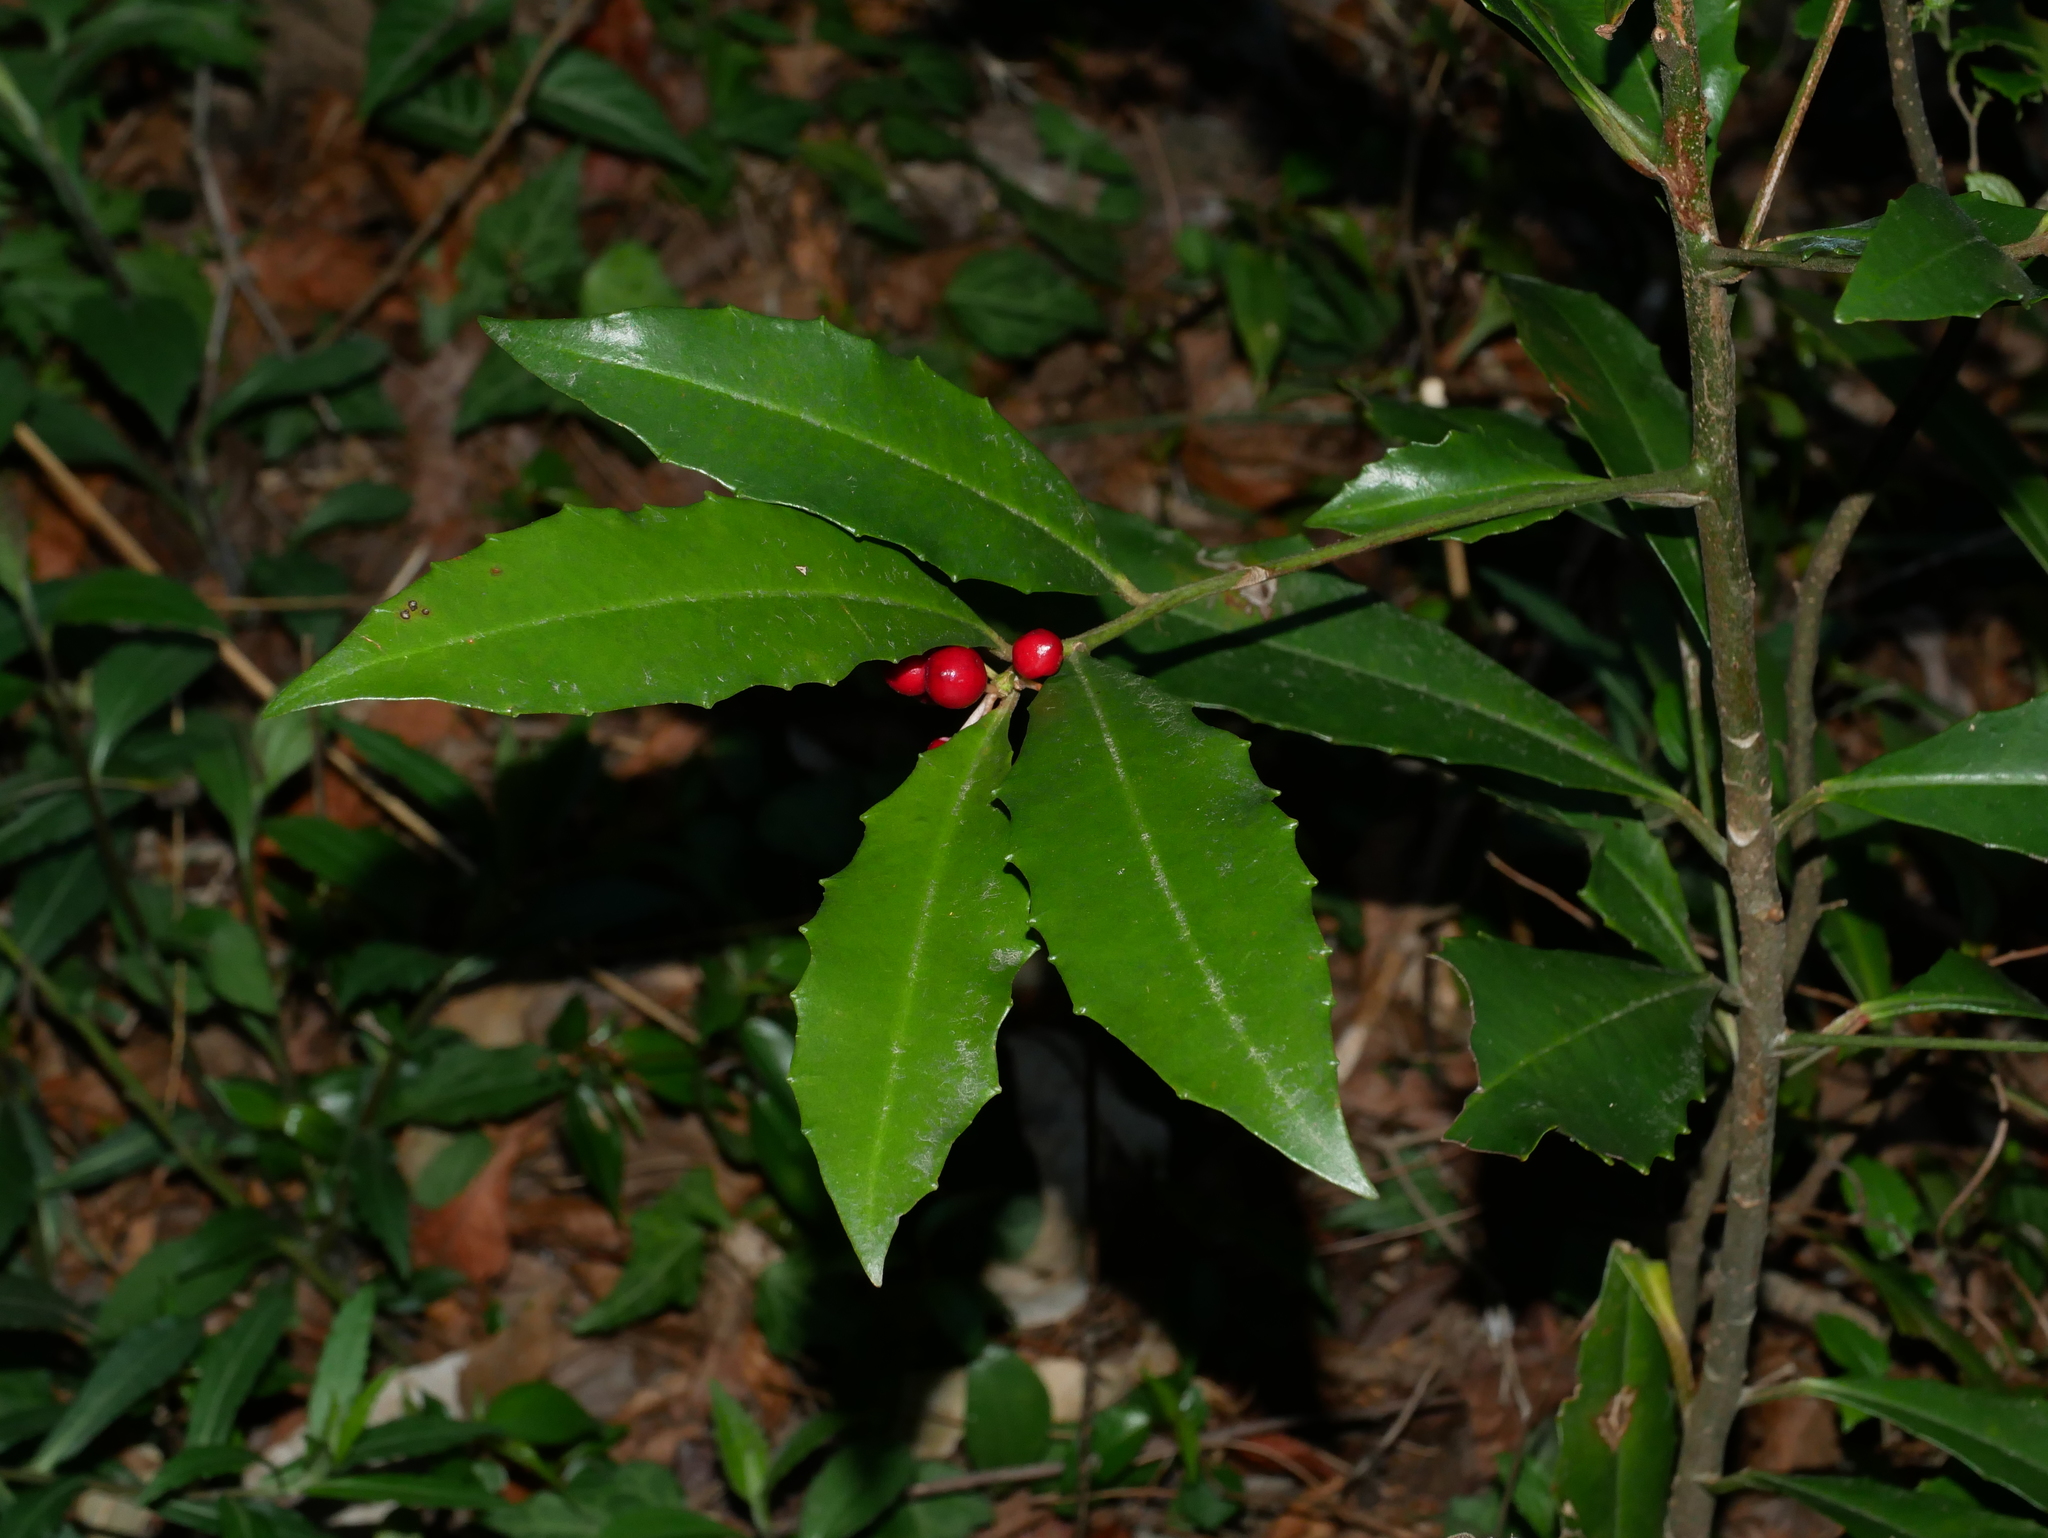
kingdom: Plantae
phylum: Tracheophyta
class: Magnoliopsida
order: Ericales
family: Primulaceae
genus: Ardisia
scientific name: Ardisia cornudentata
